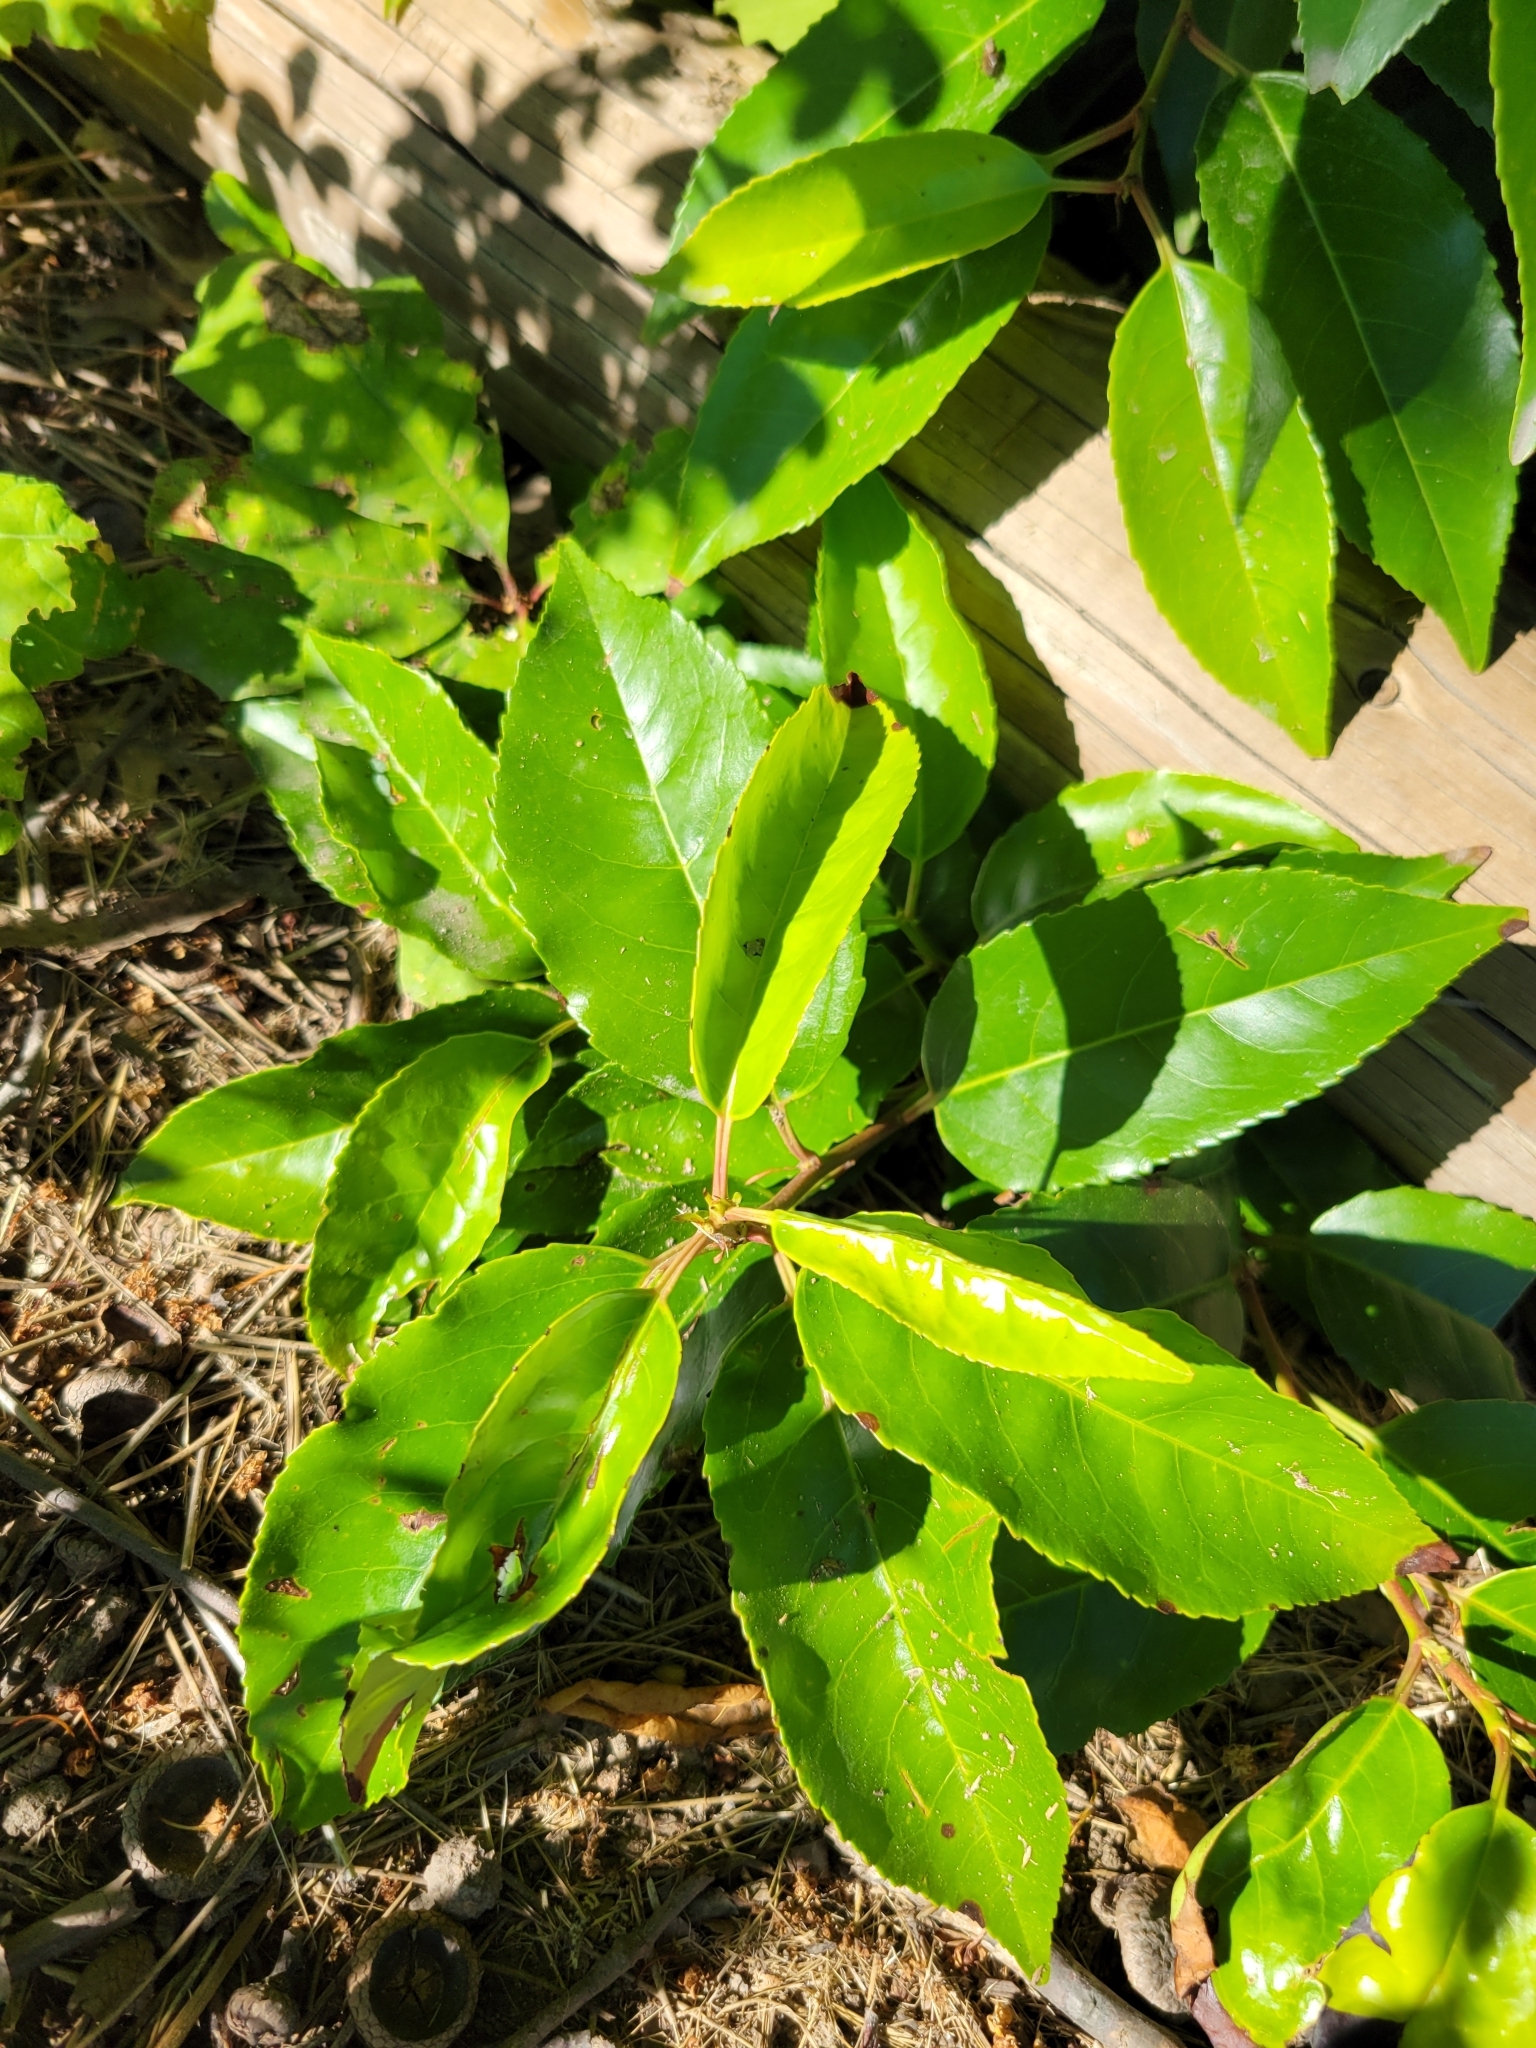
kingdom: Plantae
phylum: Tracheophyta
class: Magnoliopsida
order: Rosales
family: Rosaceae
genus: Prunus
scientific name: Prunus lusitanica
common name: Portugal laurel
